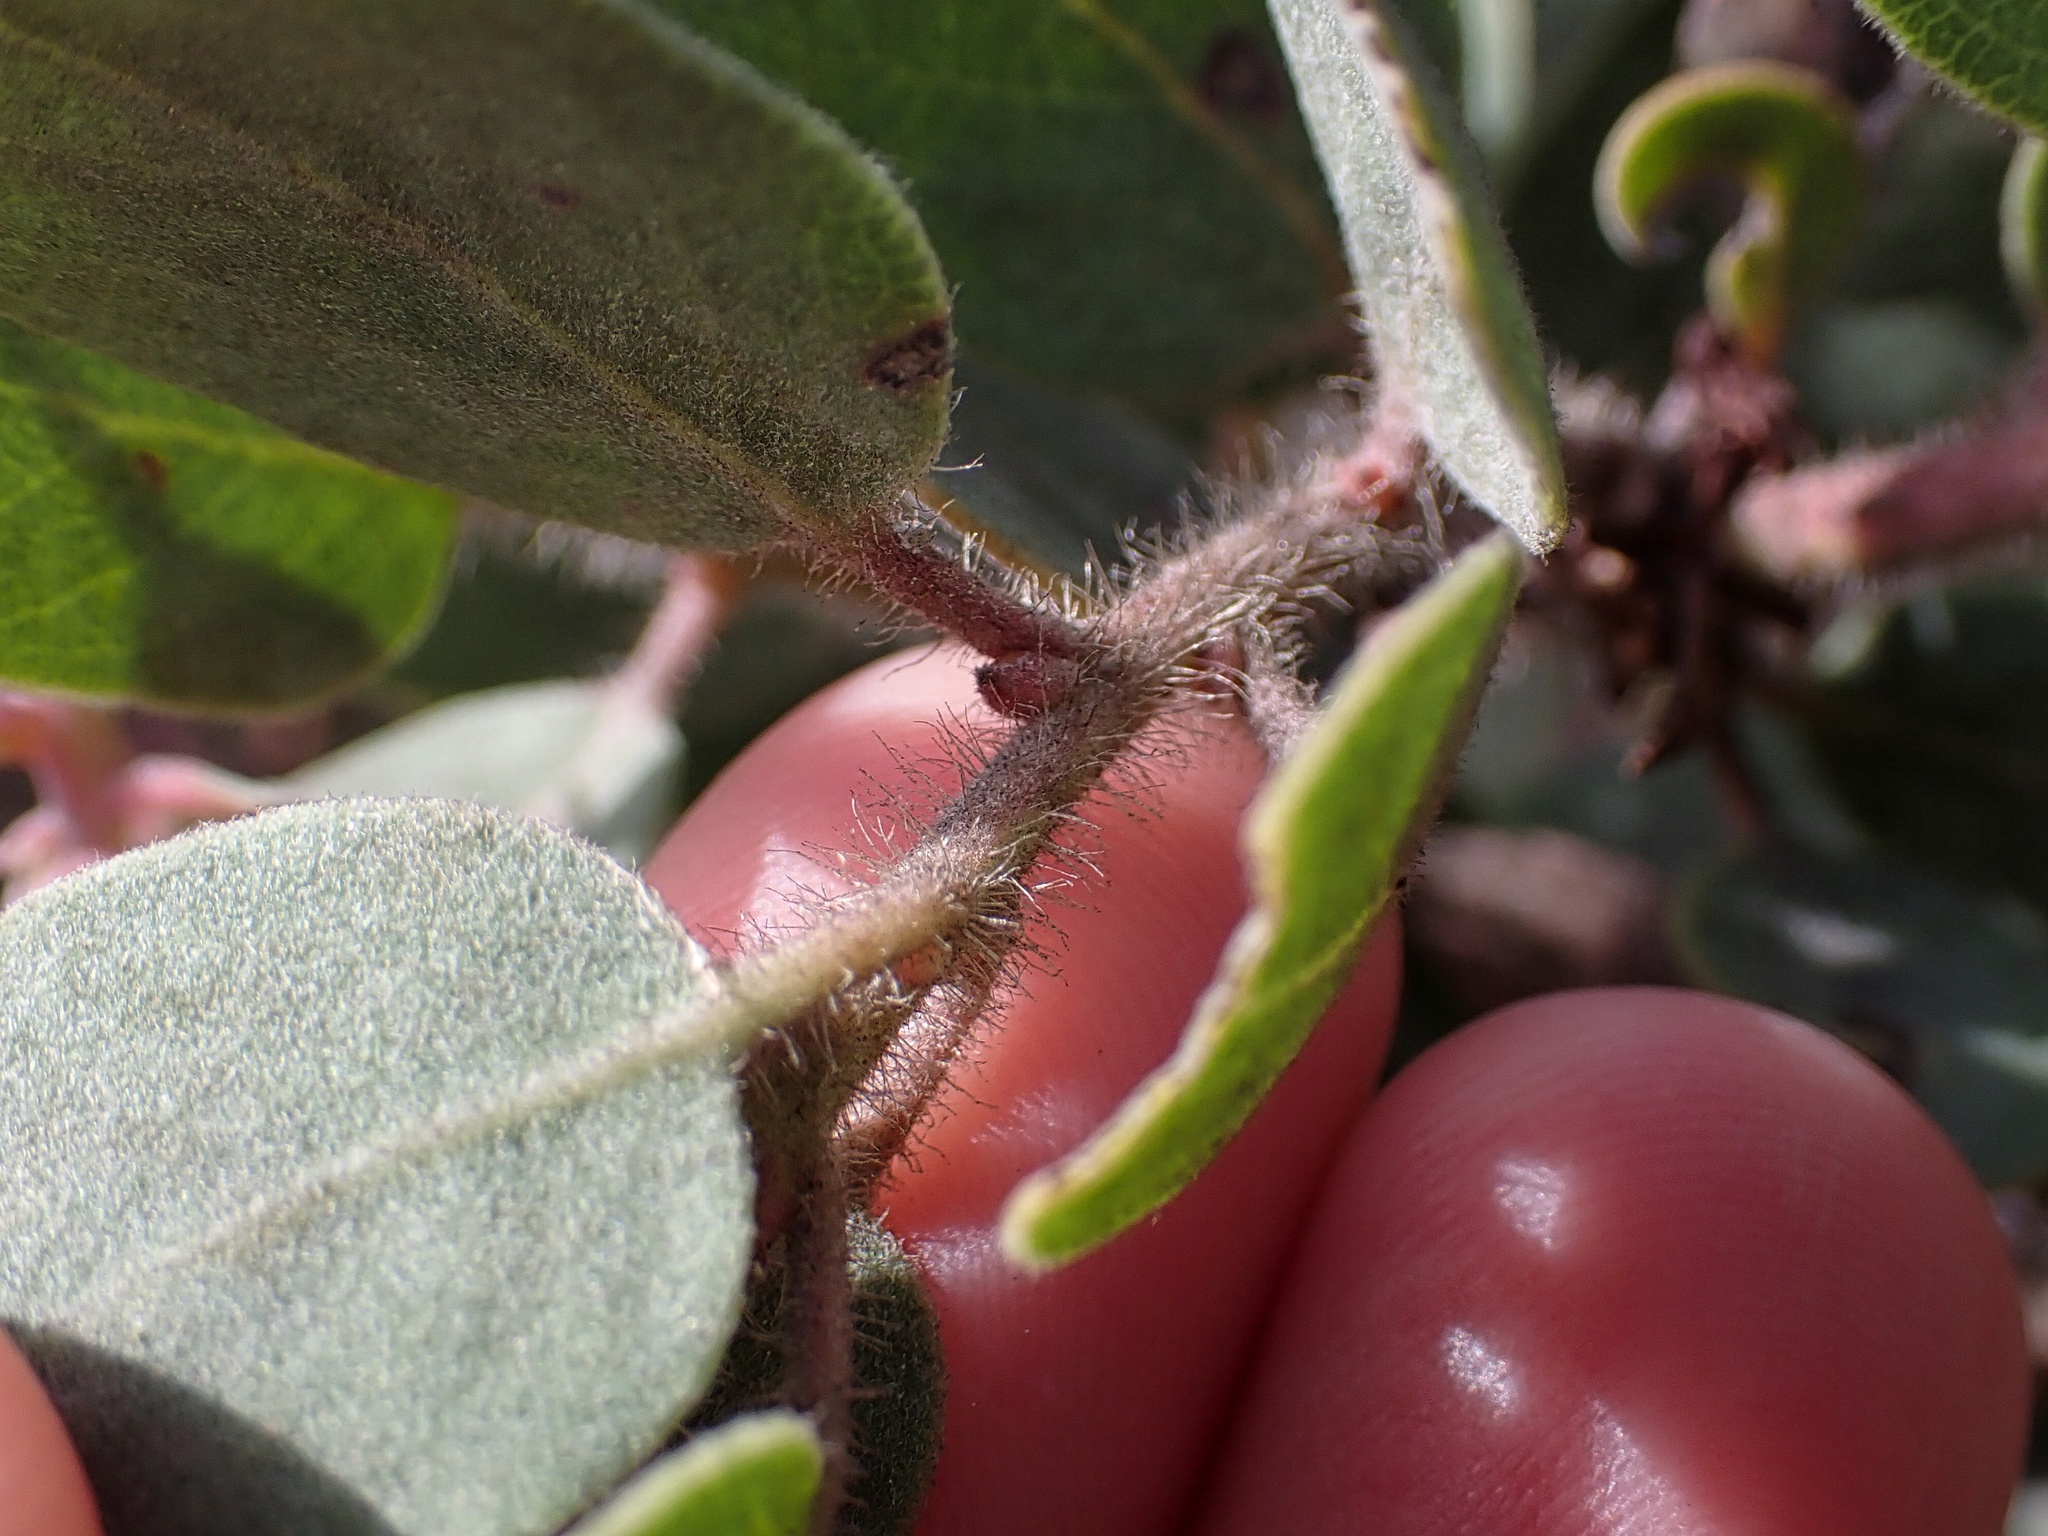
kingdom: Plantae
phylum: Tracheophyta
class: Magnoliopsida
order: Ericales
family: Ericaceae
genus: Arctostaphylos
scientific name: Arctostaphylos glandulosa
